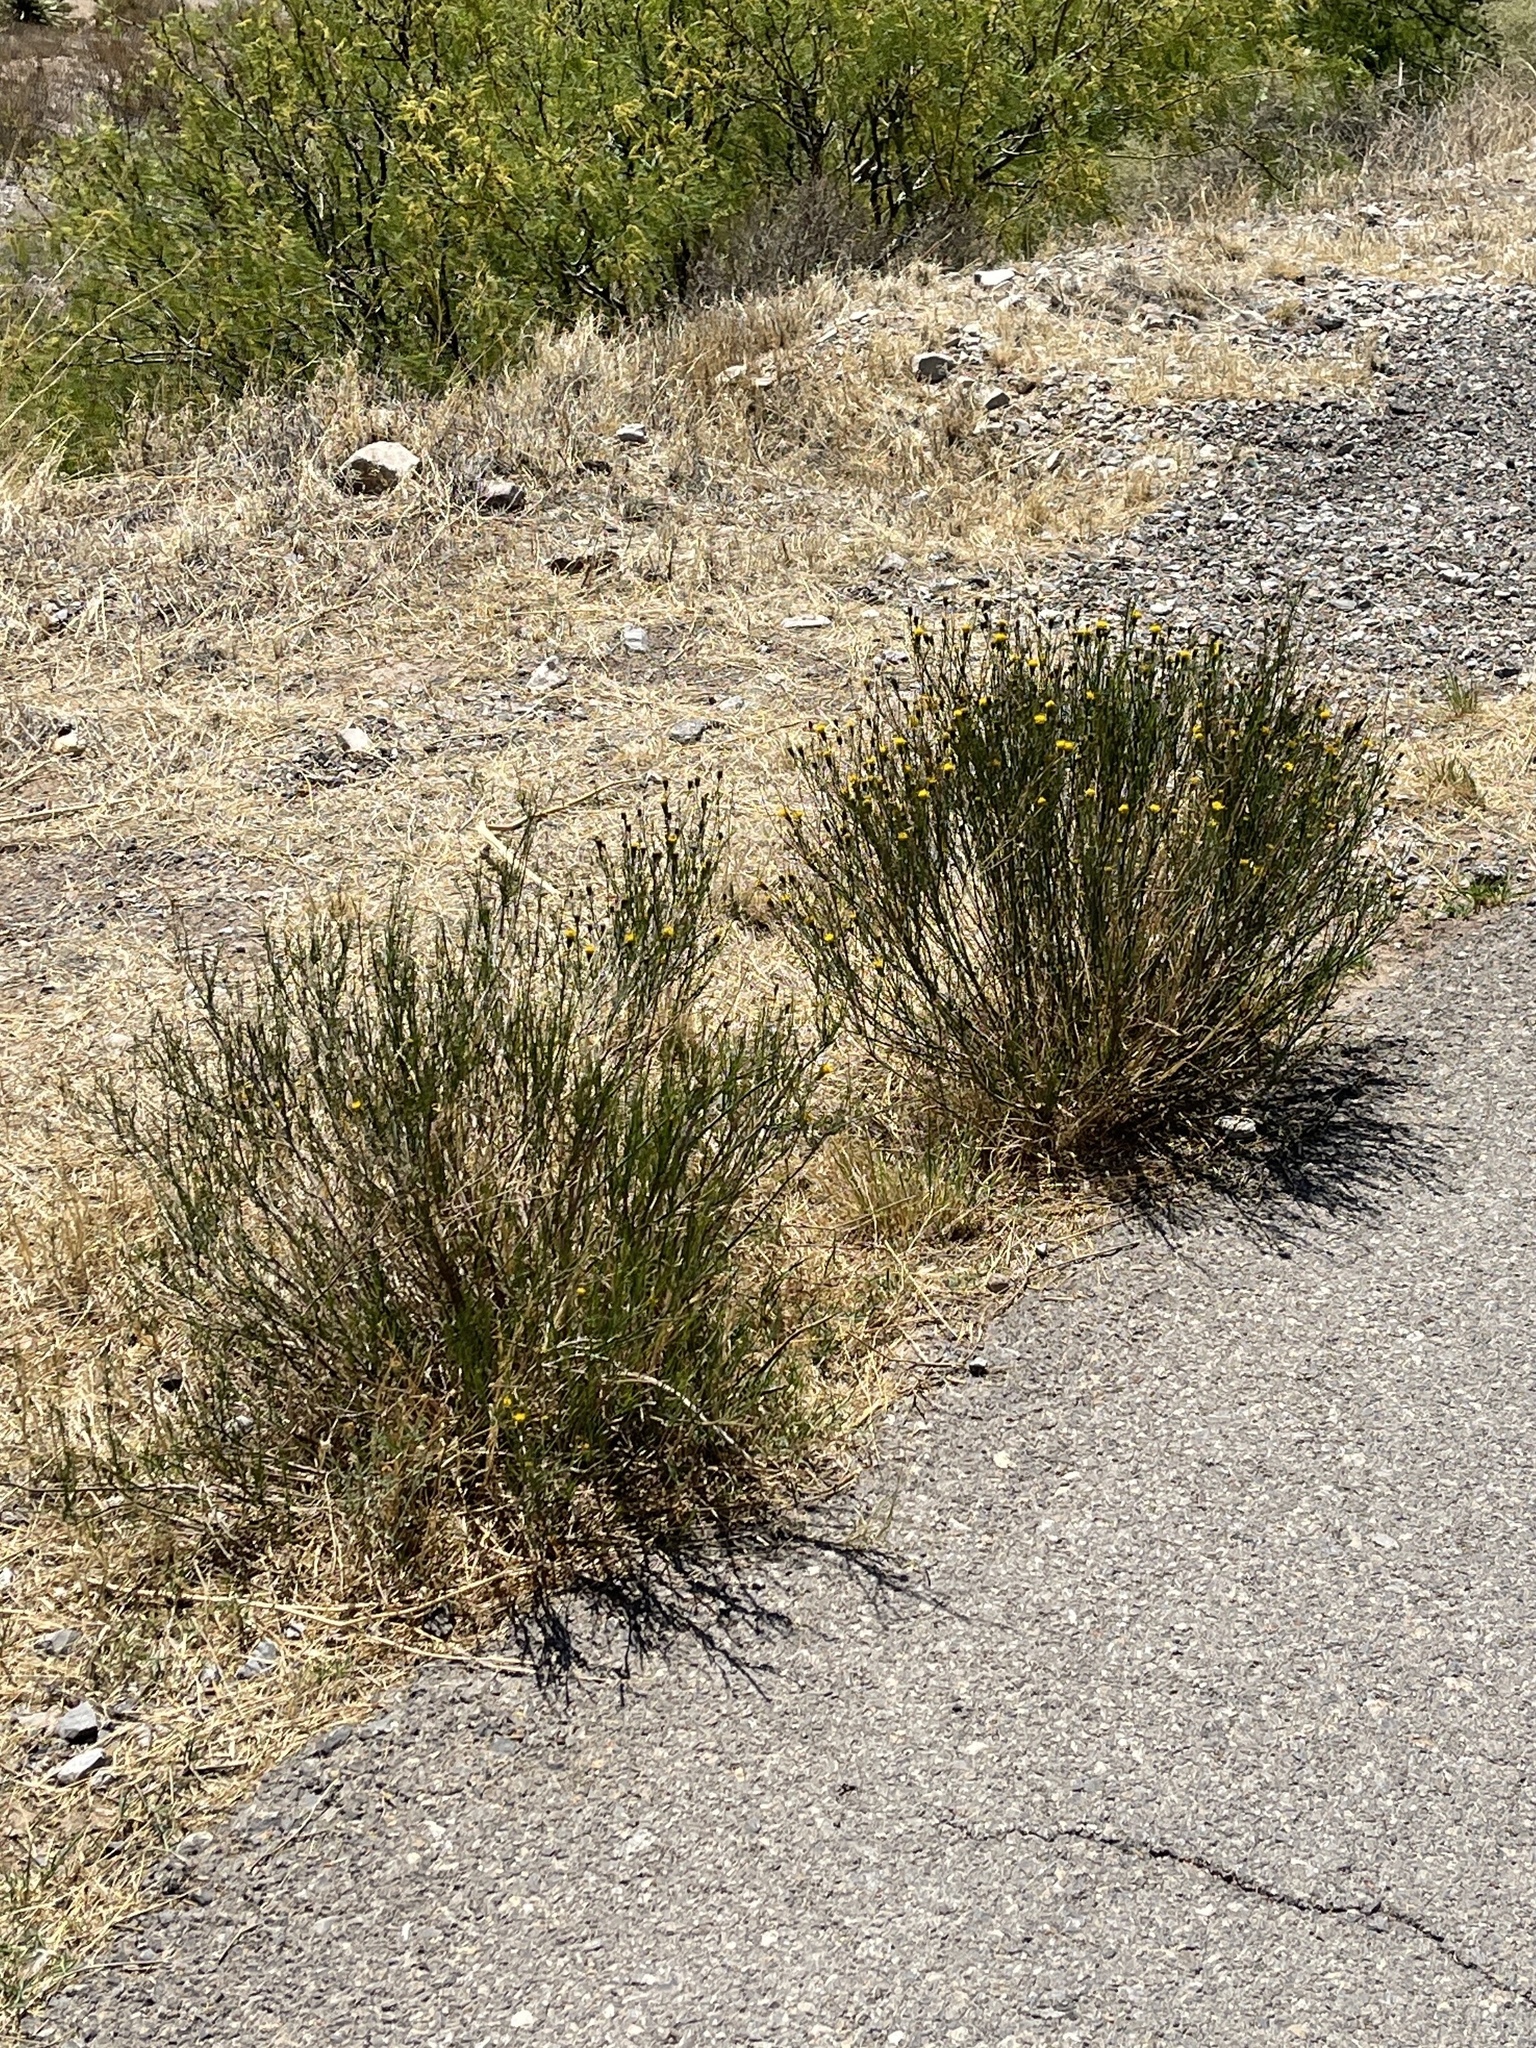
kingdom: Plantae
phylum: Tracheophyta
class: Magnoliopsida
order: Asterales
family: Asteraceae
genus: Porophyllum
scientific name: Porophyllum scoparium
